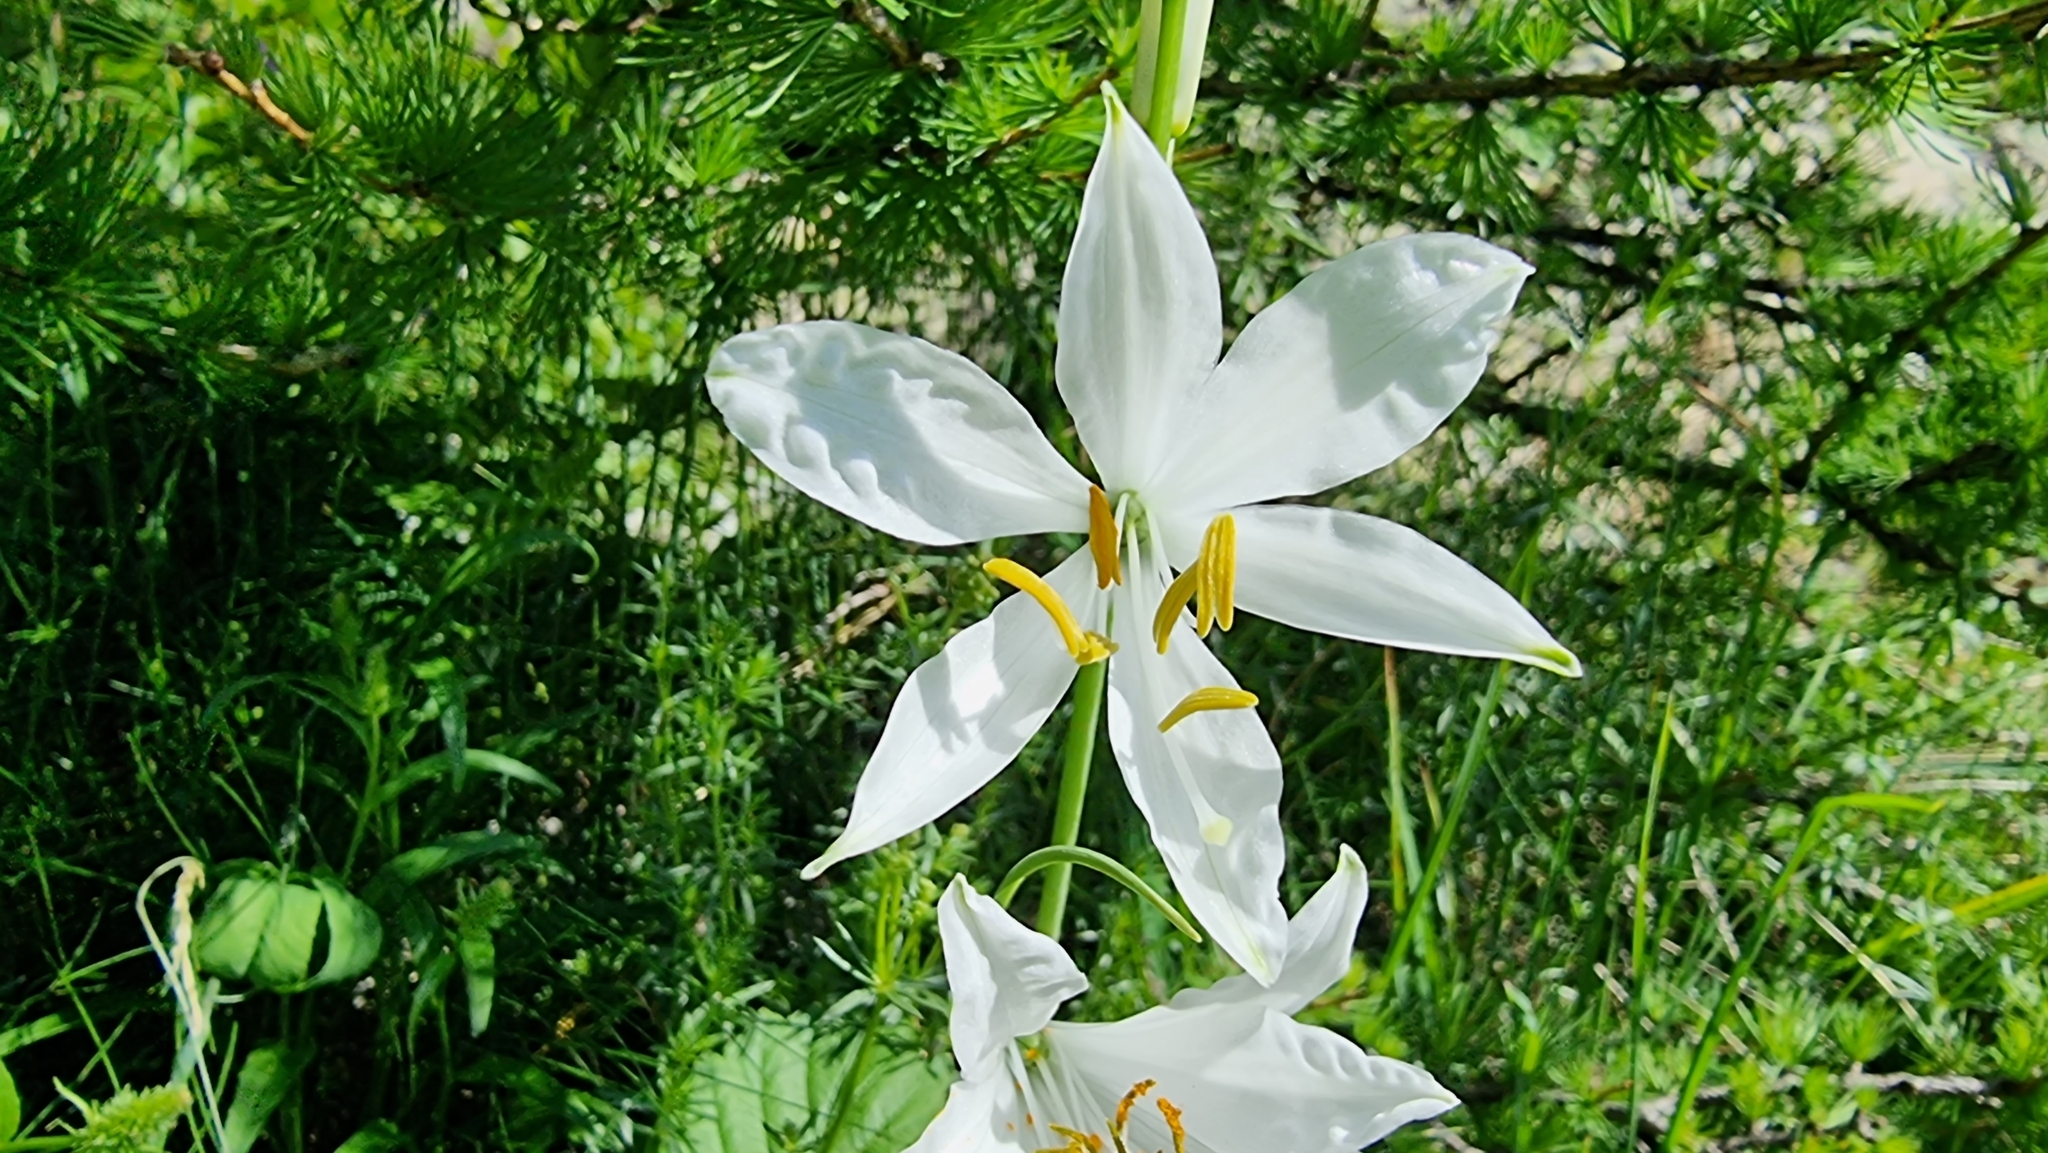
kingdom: Plantae
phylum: Tracheophyta
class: Liliopsida
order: Asparagales
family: Asparagaceae
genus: Paradisea
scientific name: Paradisea liliastrum
